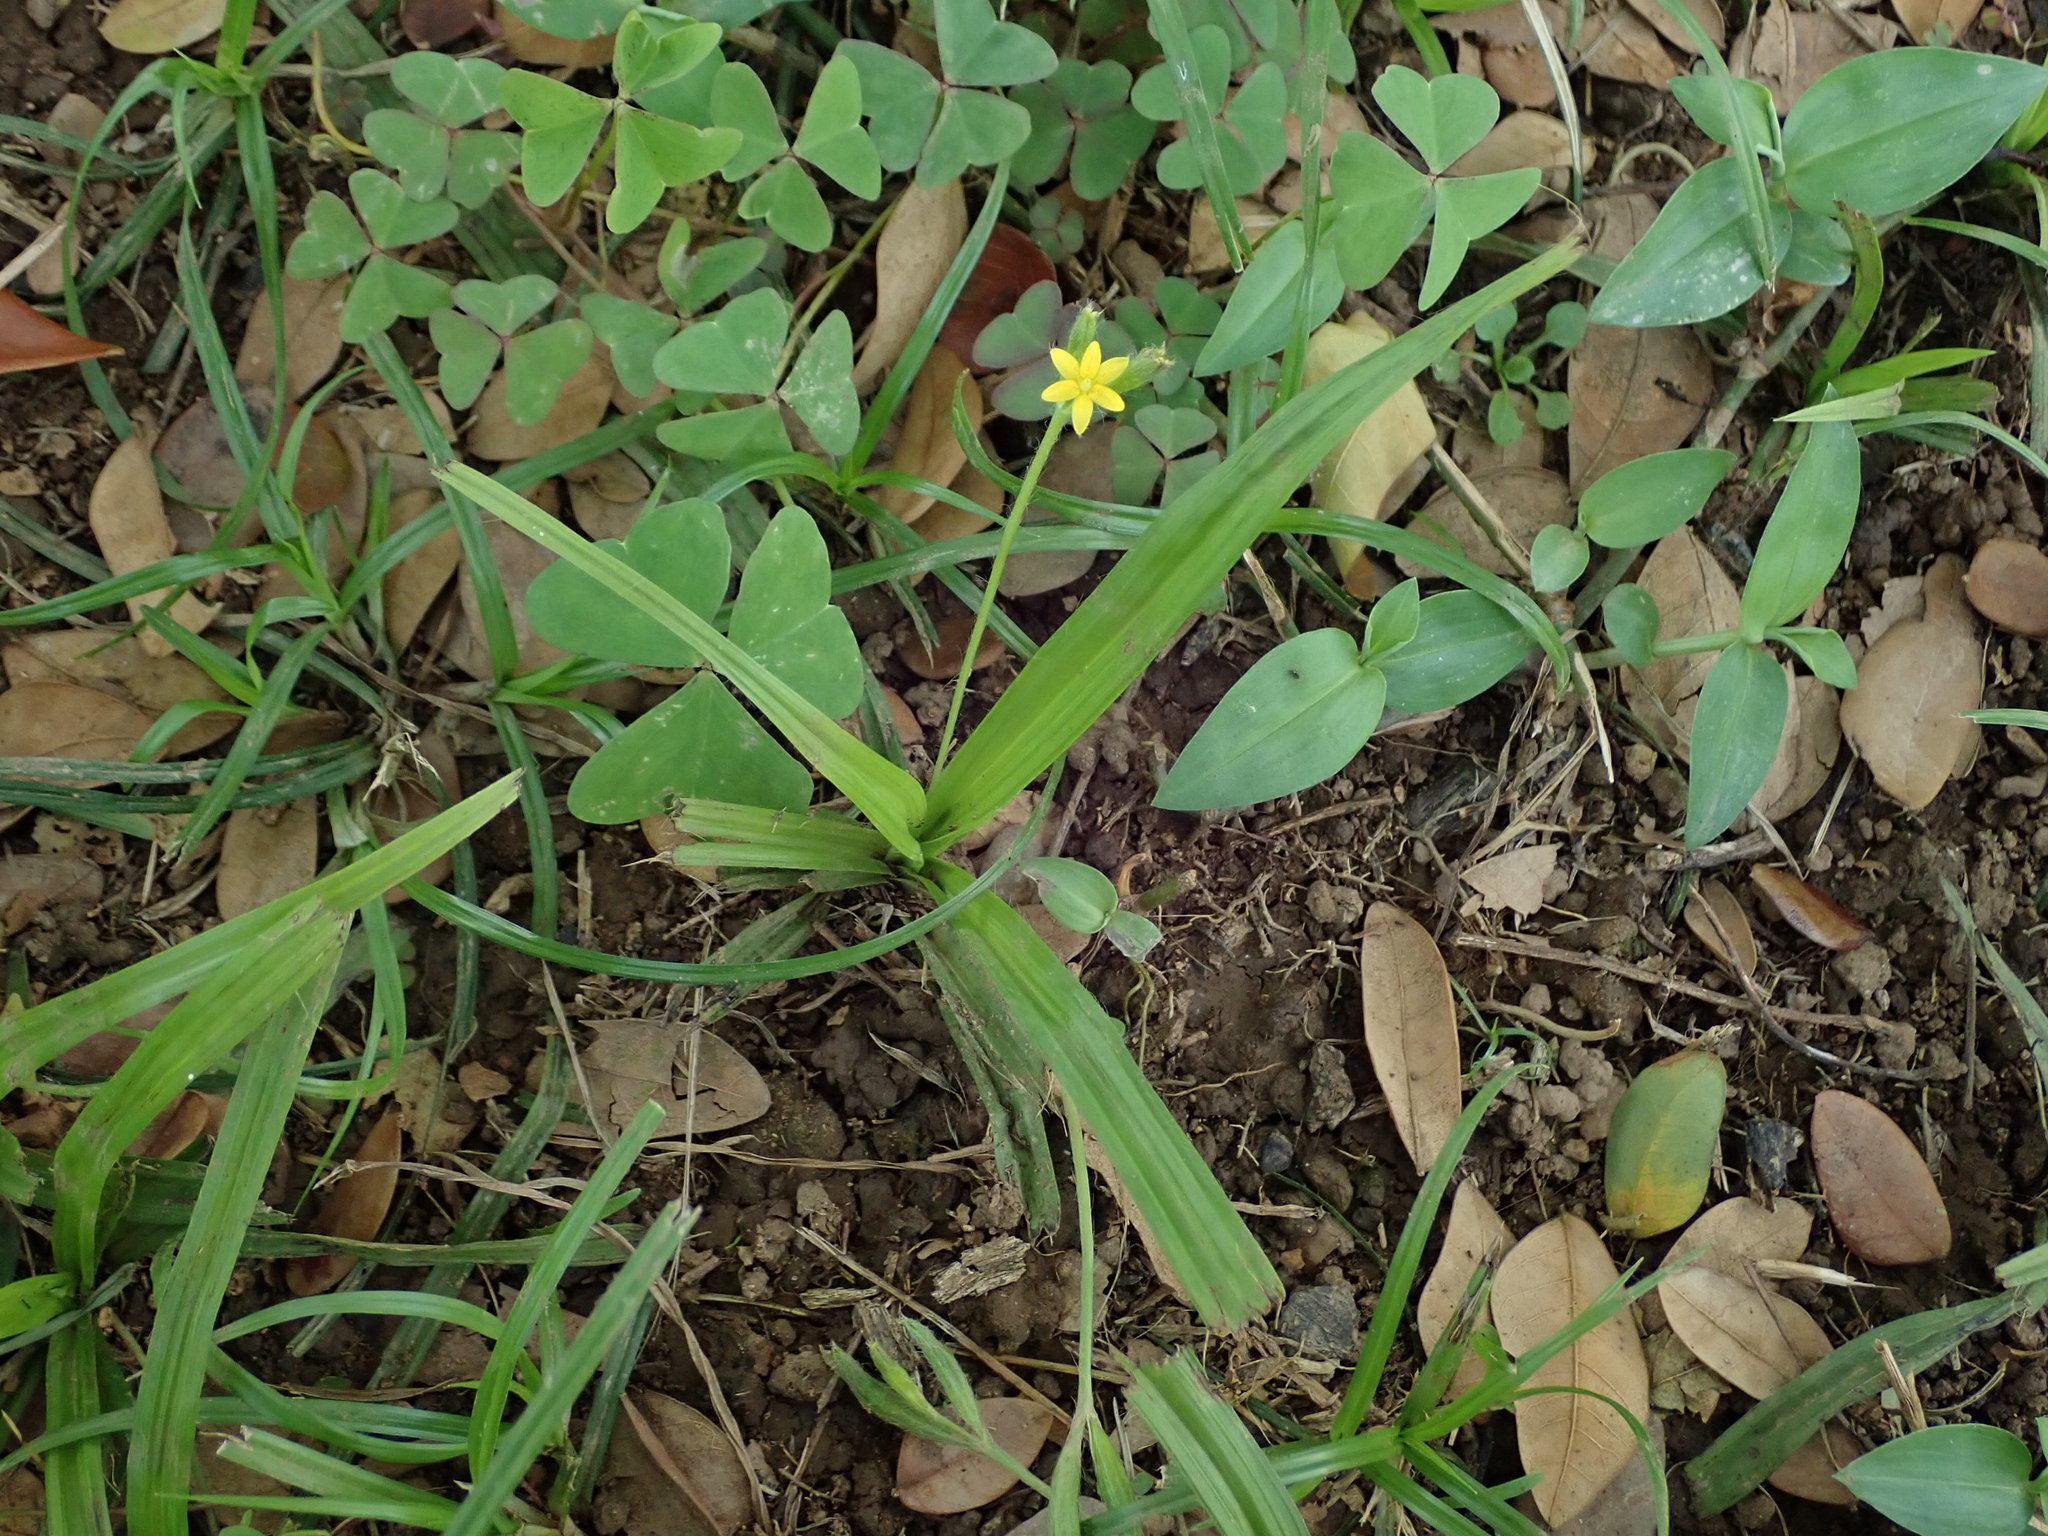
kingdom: Plantae
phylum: Tracheophyta
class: Liliopsida
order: Asparagales
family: Hypoxidaceae
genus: Hypoxis
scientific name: Hypoxis decumbens
